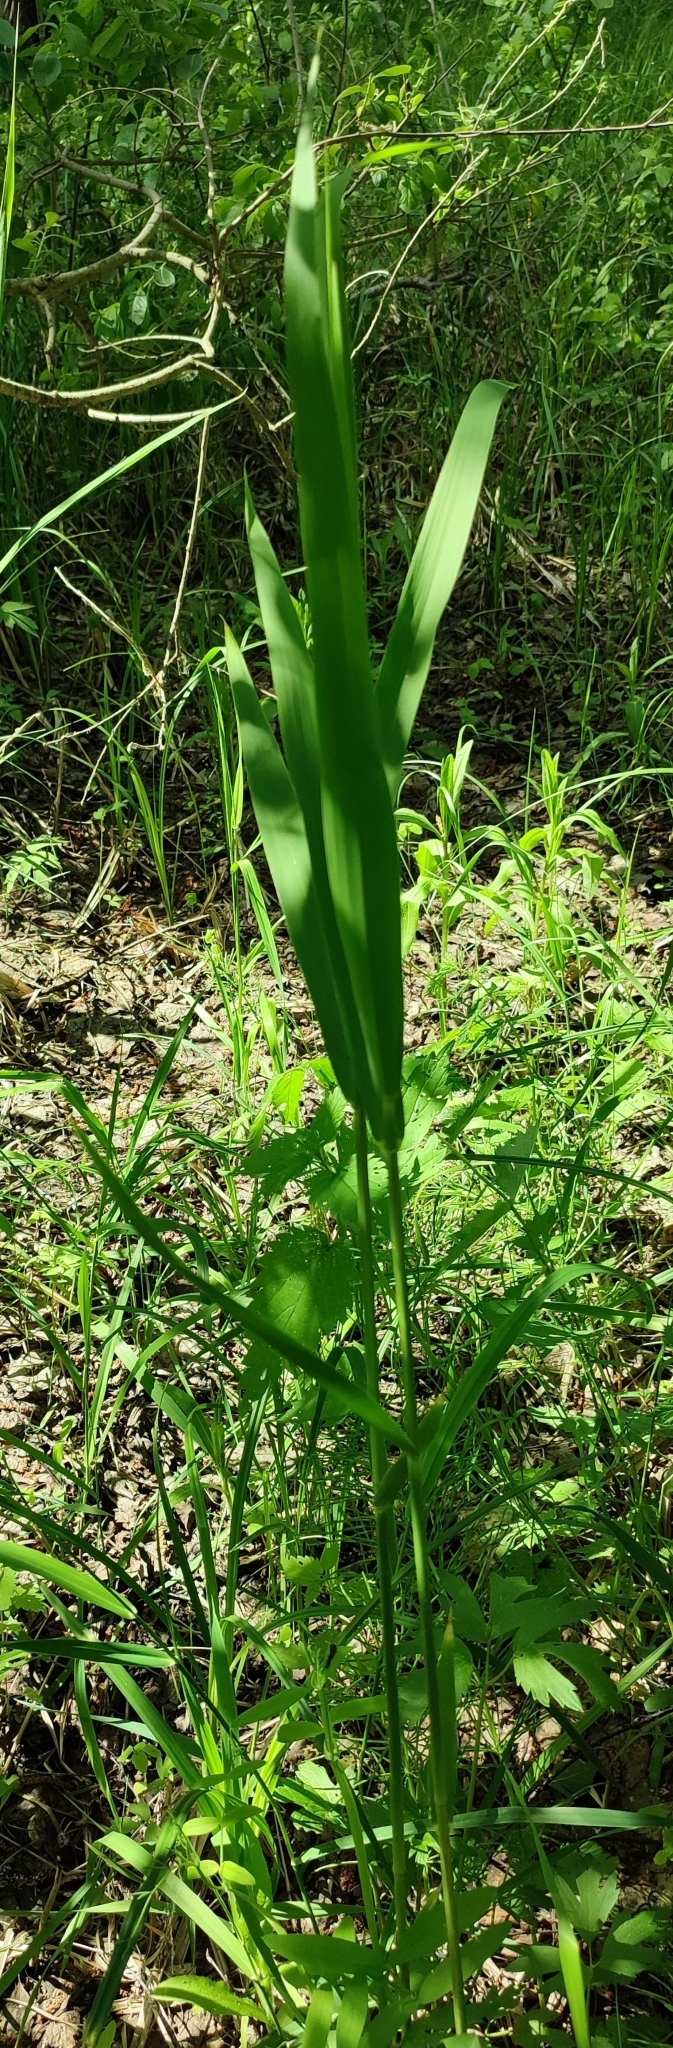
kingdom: Plantae
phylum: Tracheophyta
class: Liliopsida
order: Poales
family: Poaceae
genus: Phragmites
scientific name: Phragmites australis
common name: Common reed
